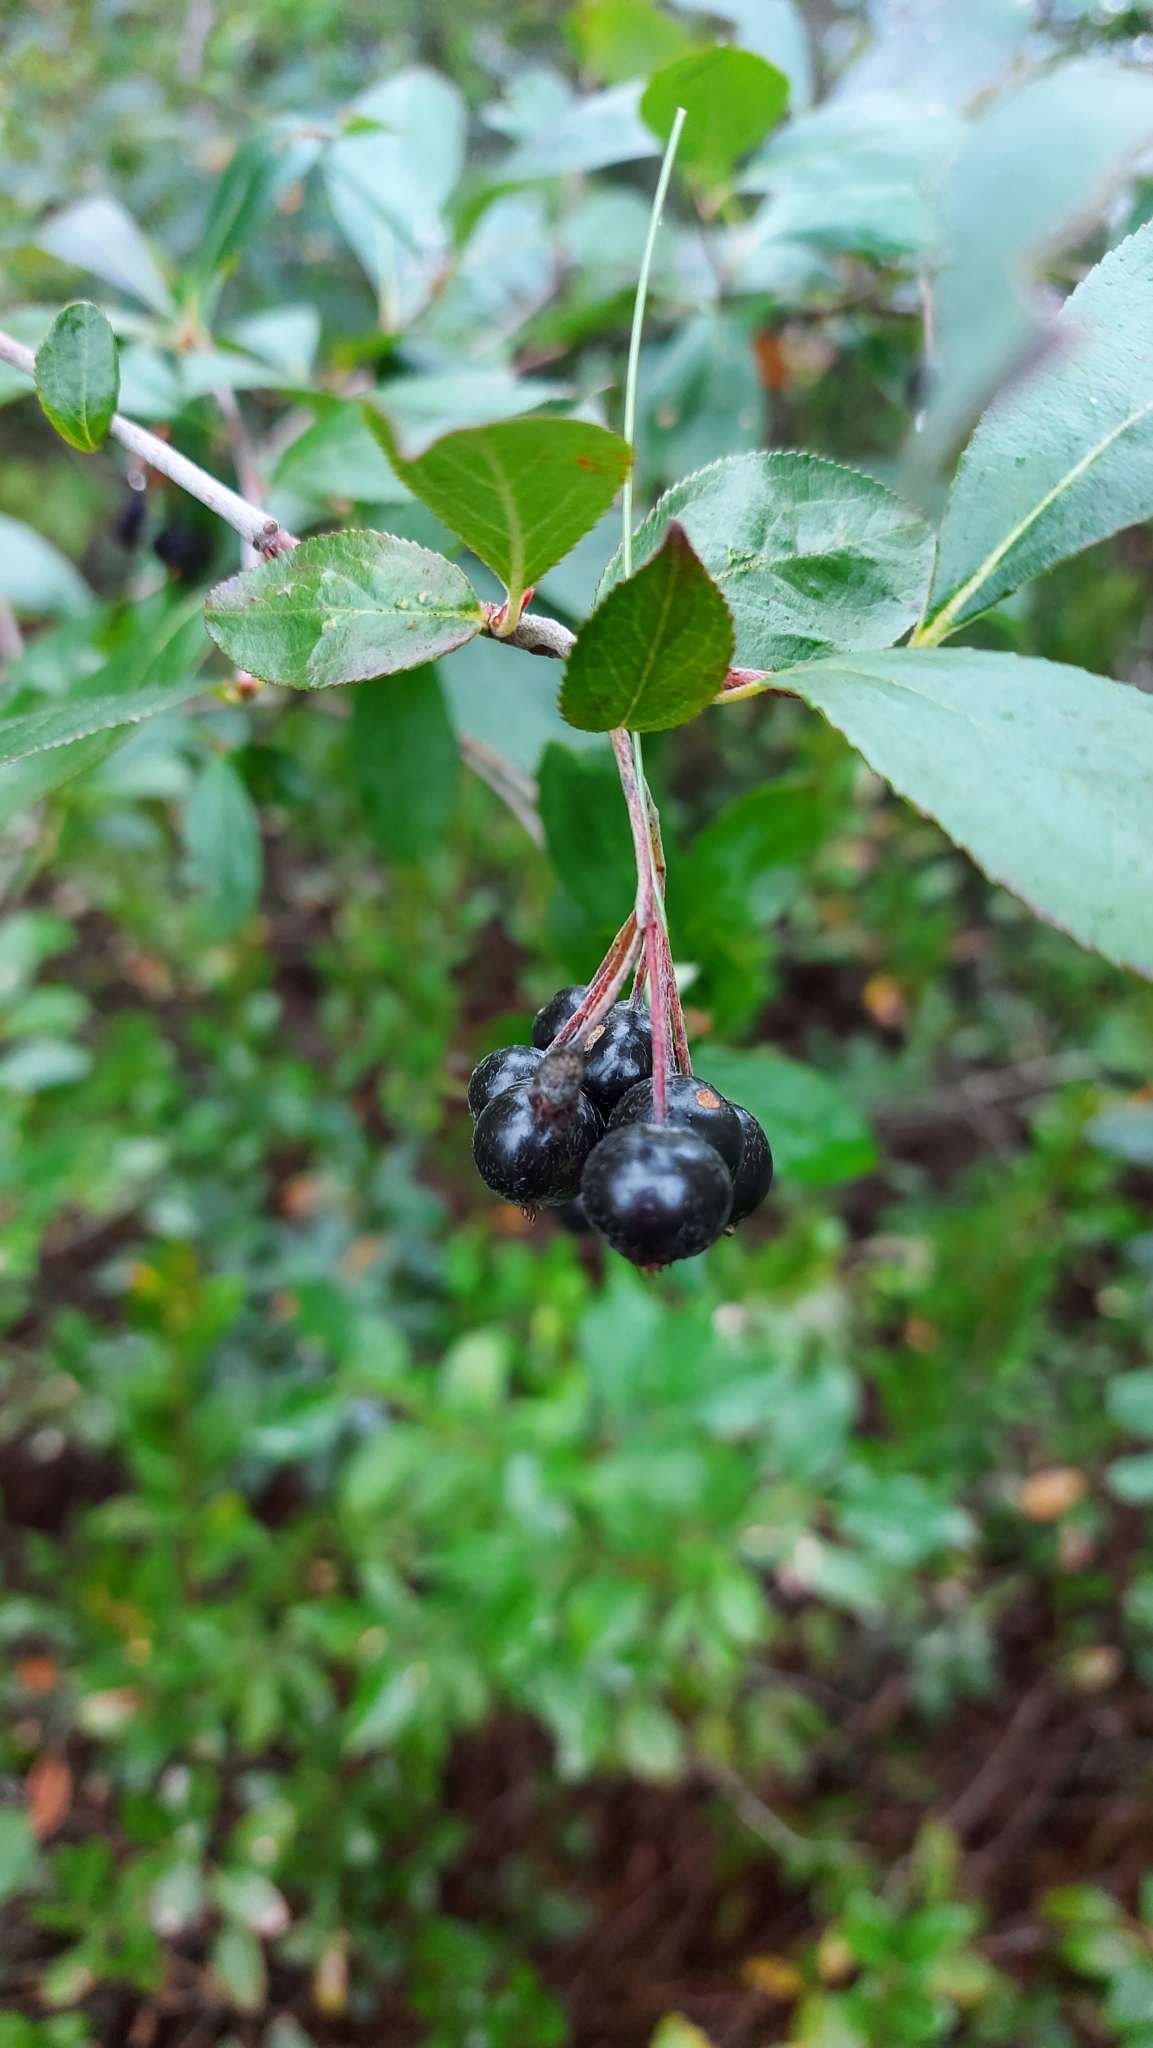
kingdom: Plantae
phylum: Tracheophyta
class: Magnoliopsida
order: Rosales
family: Rosaceae
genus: Aronia
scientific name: Aronia melanocarpa
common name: Black chokeberry
